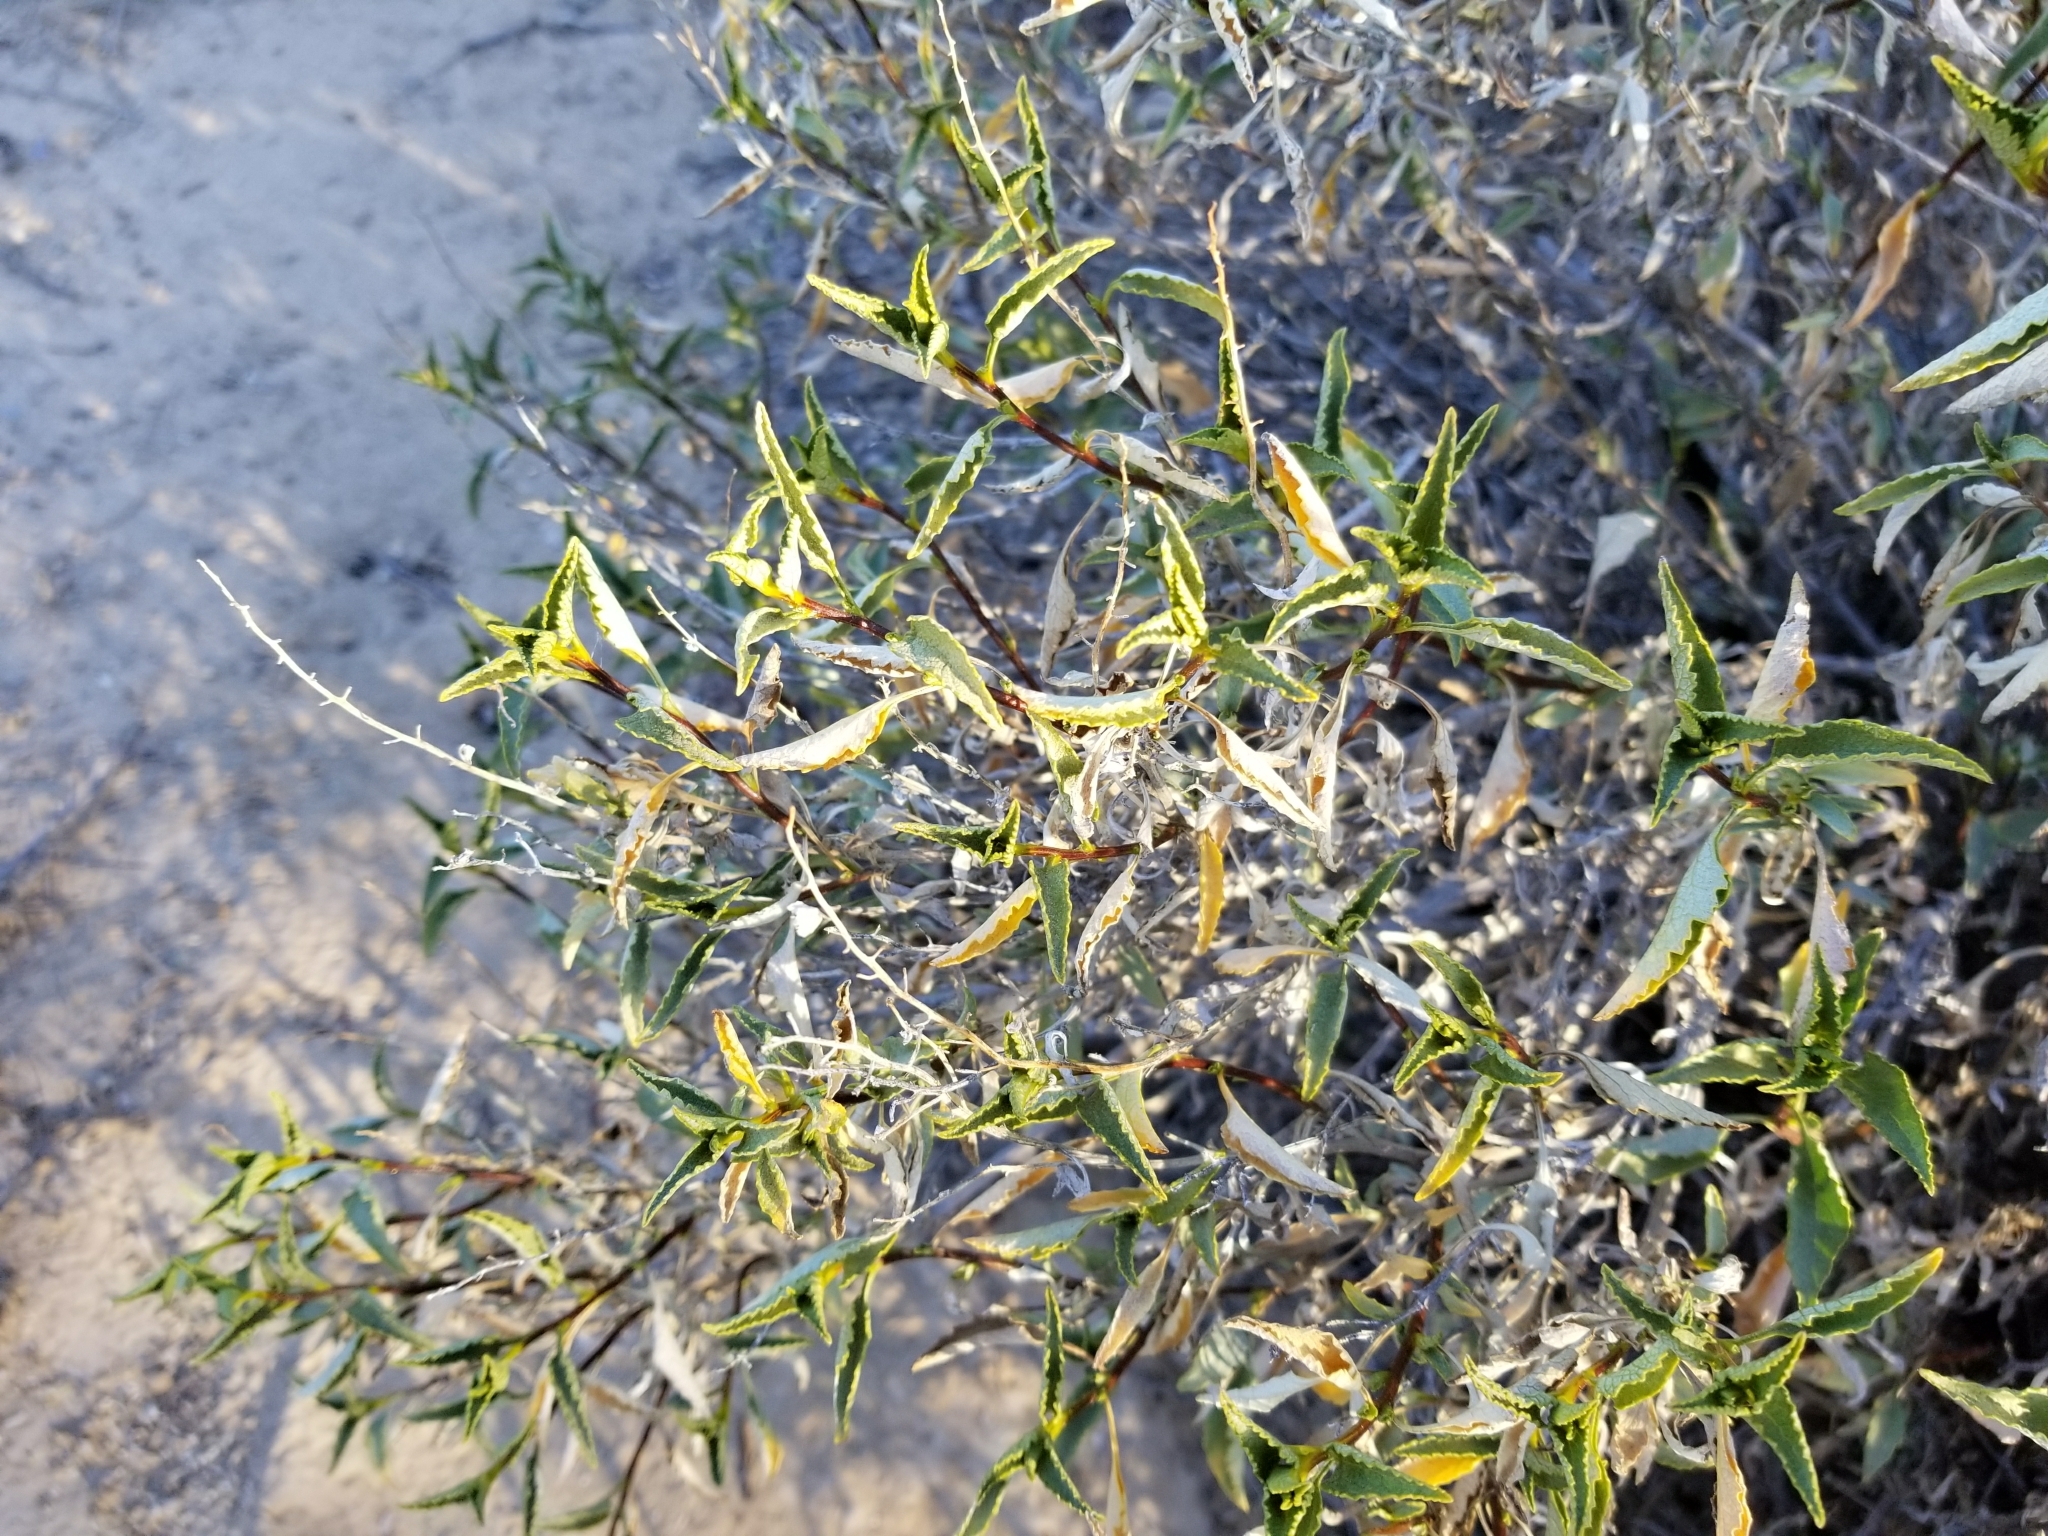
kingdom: Plantae
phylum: Tracheophyta
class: Magnoliopsida
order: Asterales
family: Asteraceae
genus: Ambrosia
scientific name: Ambrosia deltoidea
